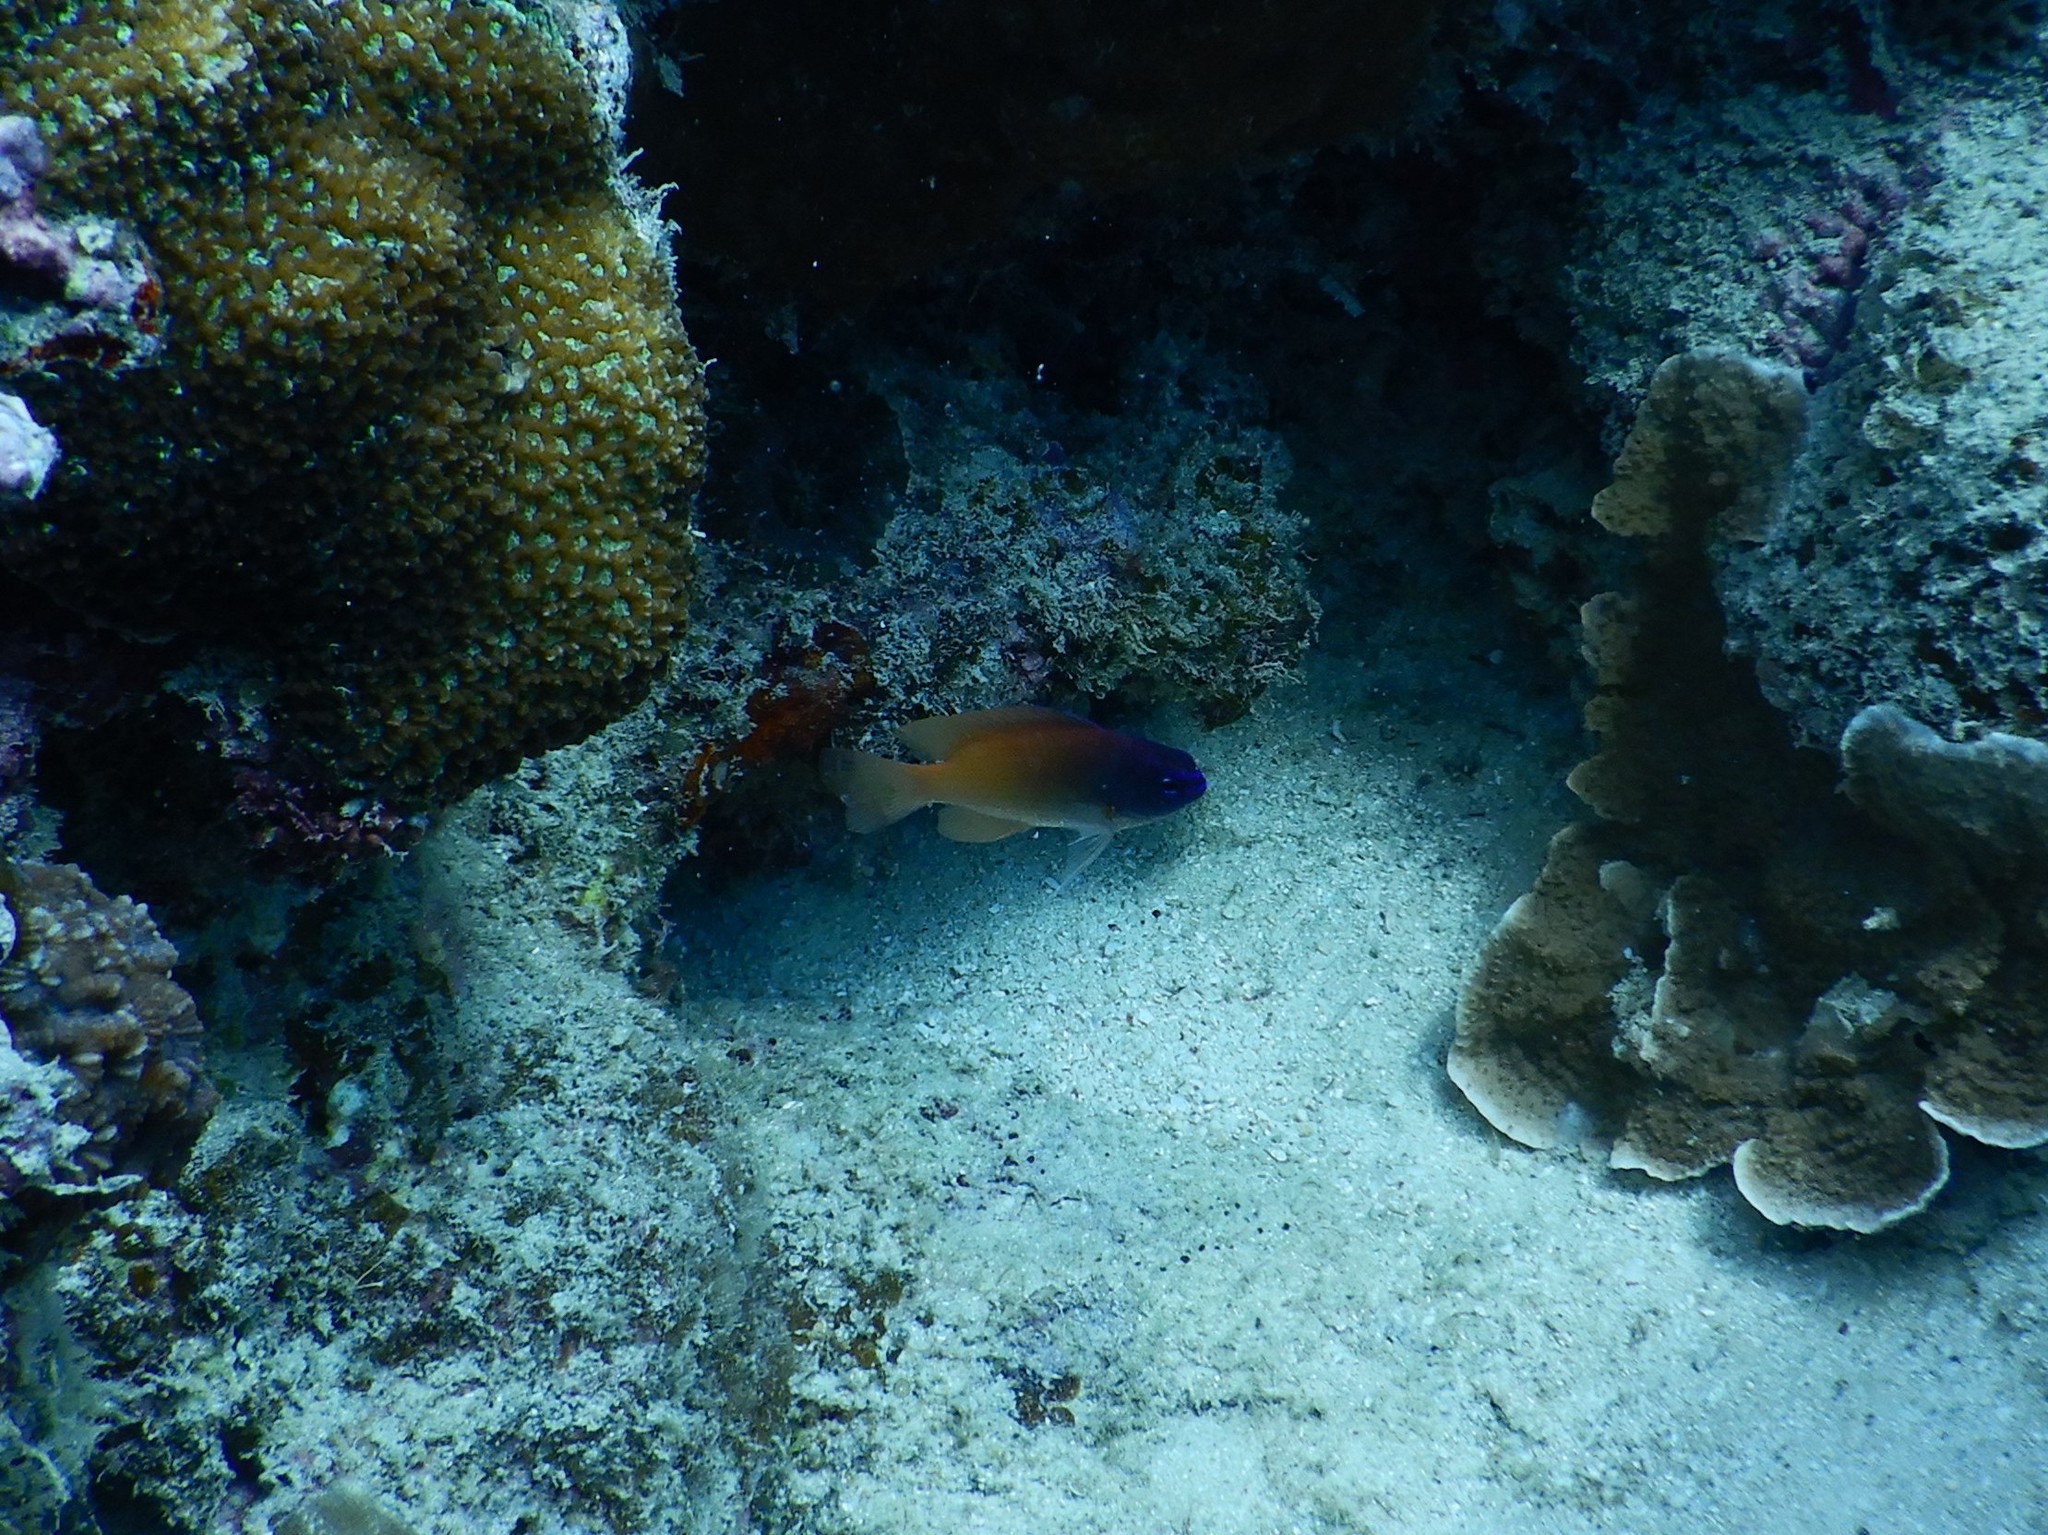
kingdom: Animalia
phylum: Chordata
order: Perciformes
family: Pomacentridae
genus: Chrysiptera
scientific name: Chrysiptera rex
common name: King demoiselle
